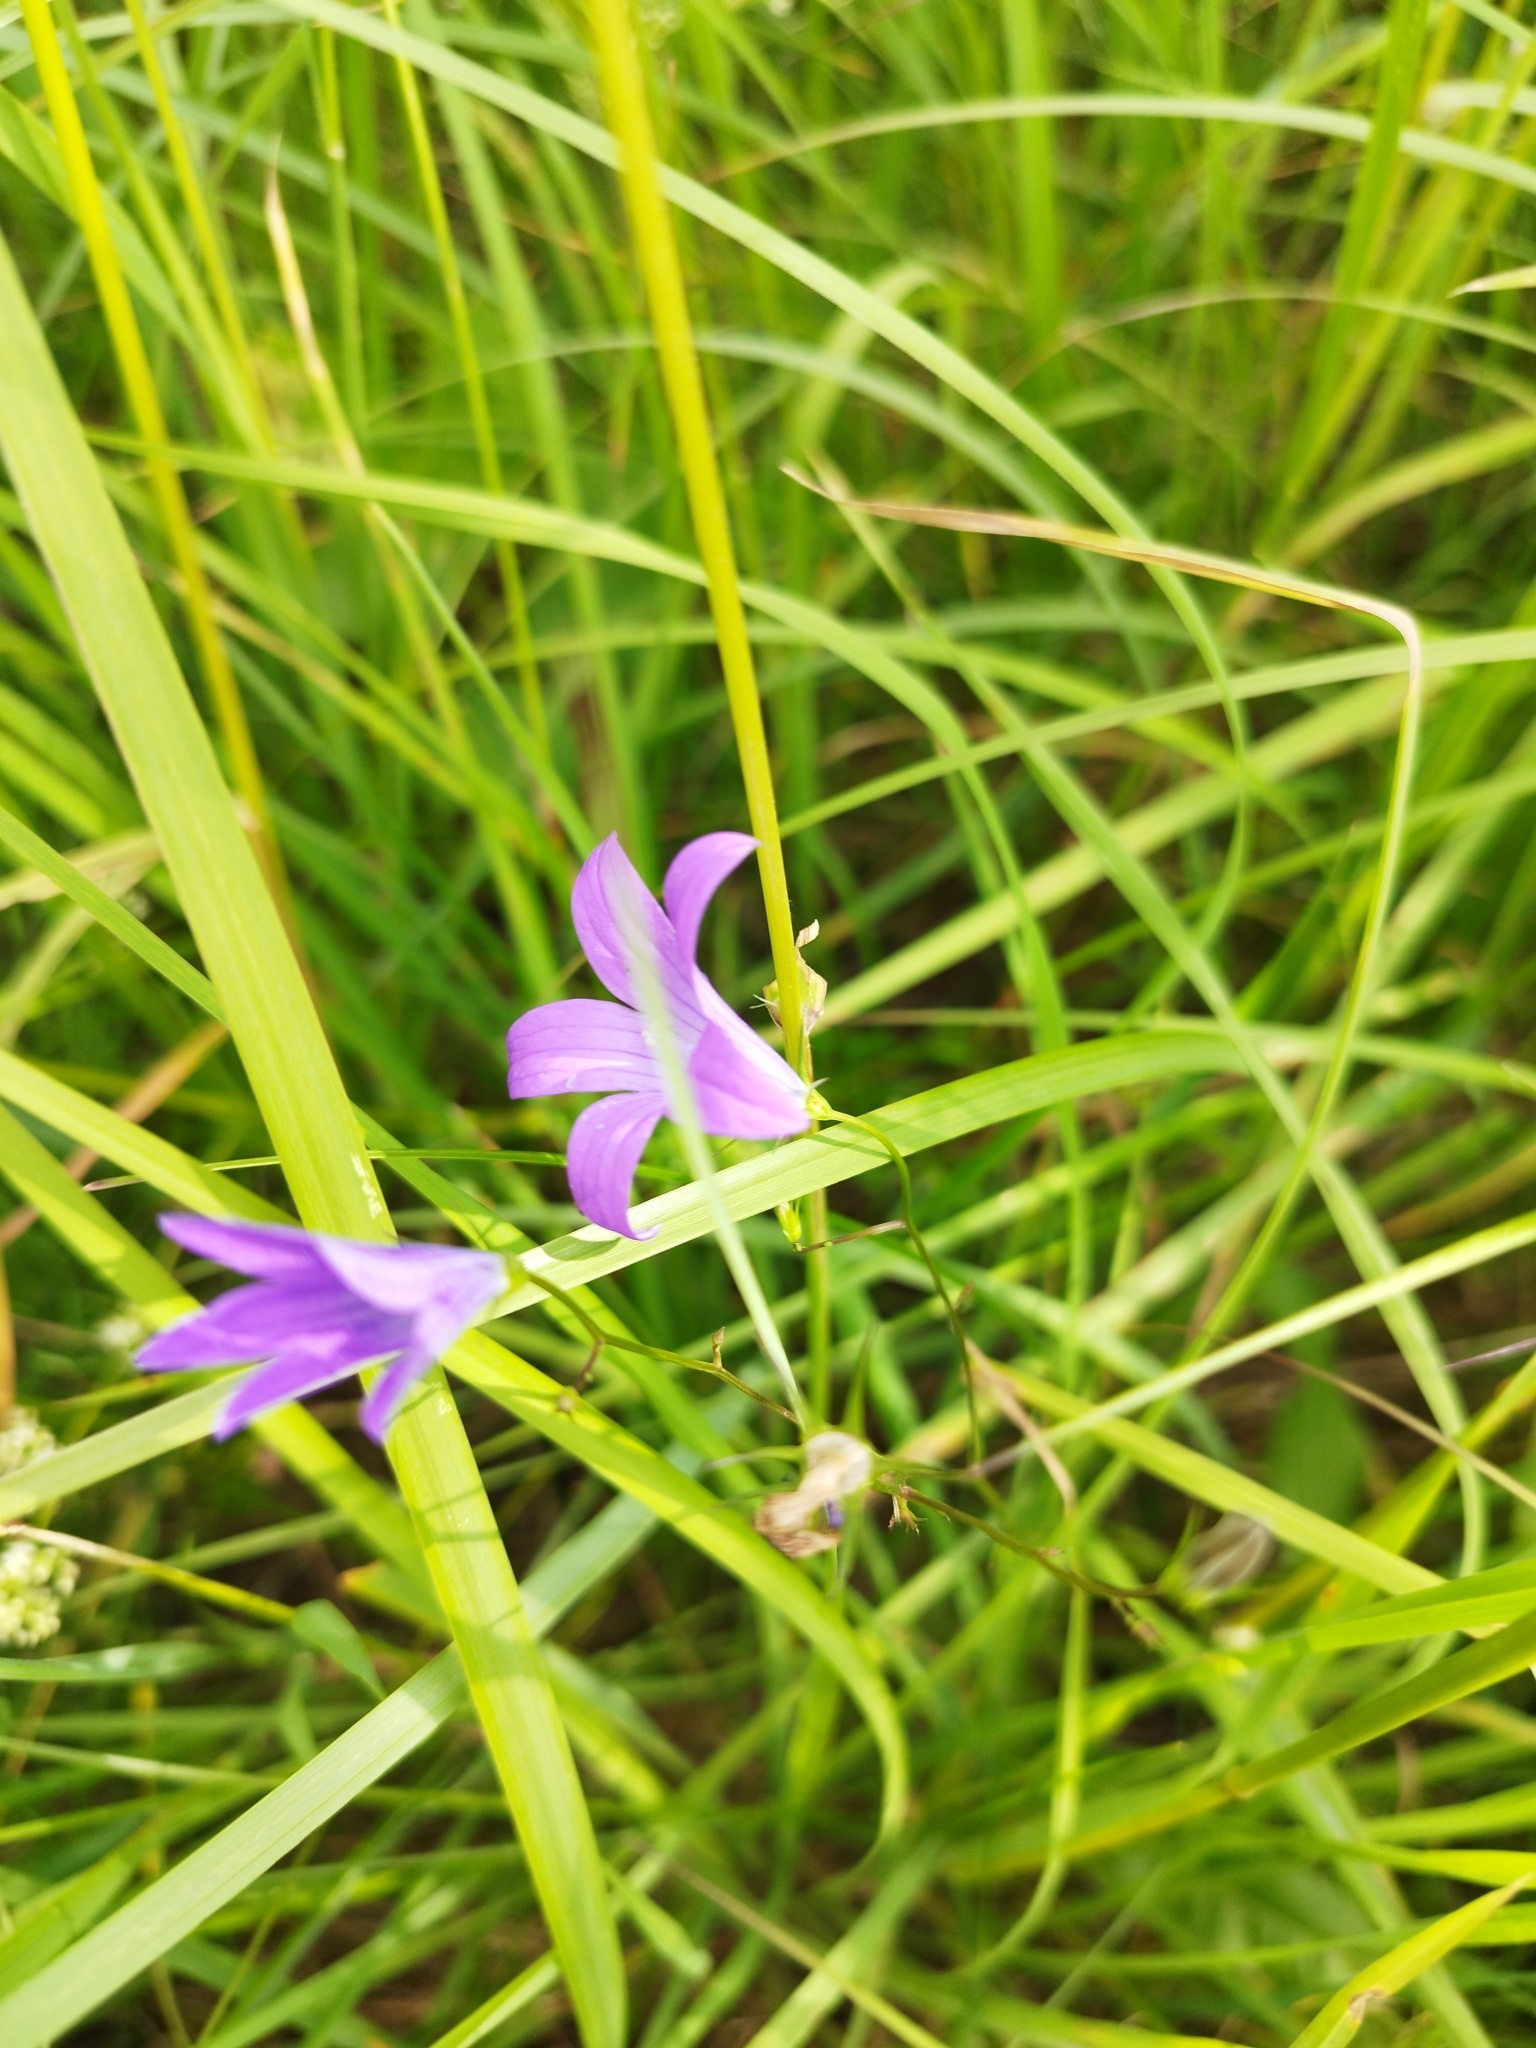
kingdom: Plantae
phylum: Tracheophyta
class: Magnoliopsida
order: Asterales
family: Campanulaceae
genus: Campanula
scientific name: Campanula patula
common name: Spreading bellflower
